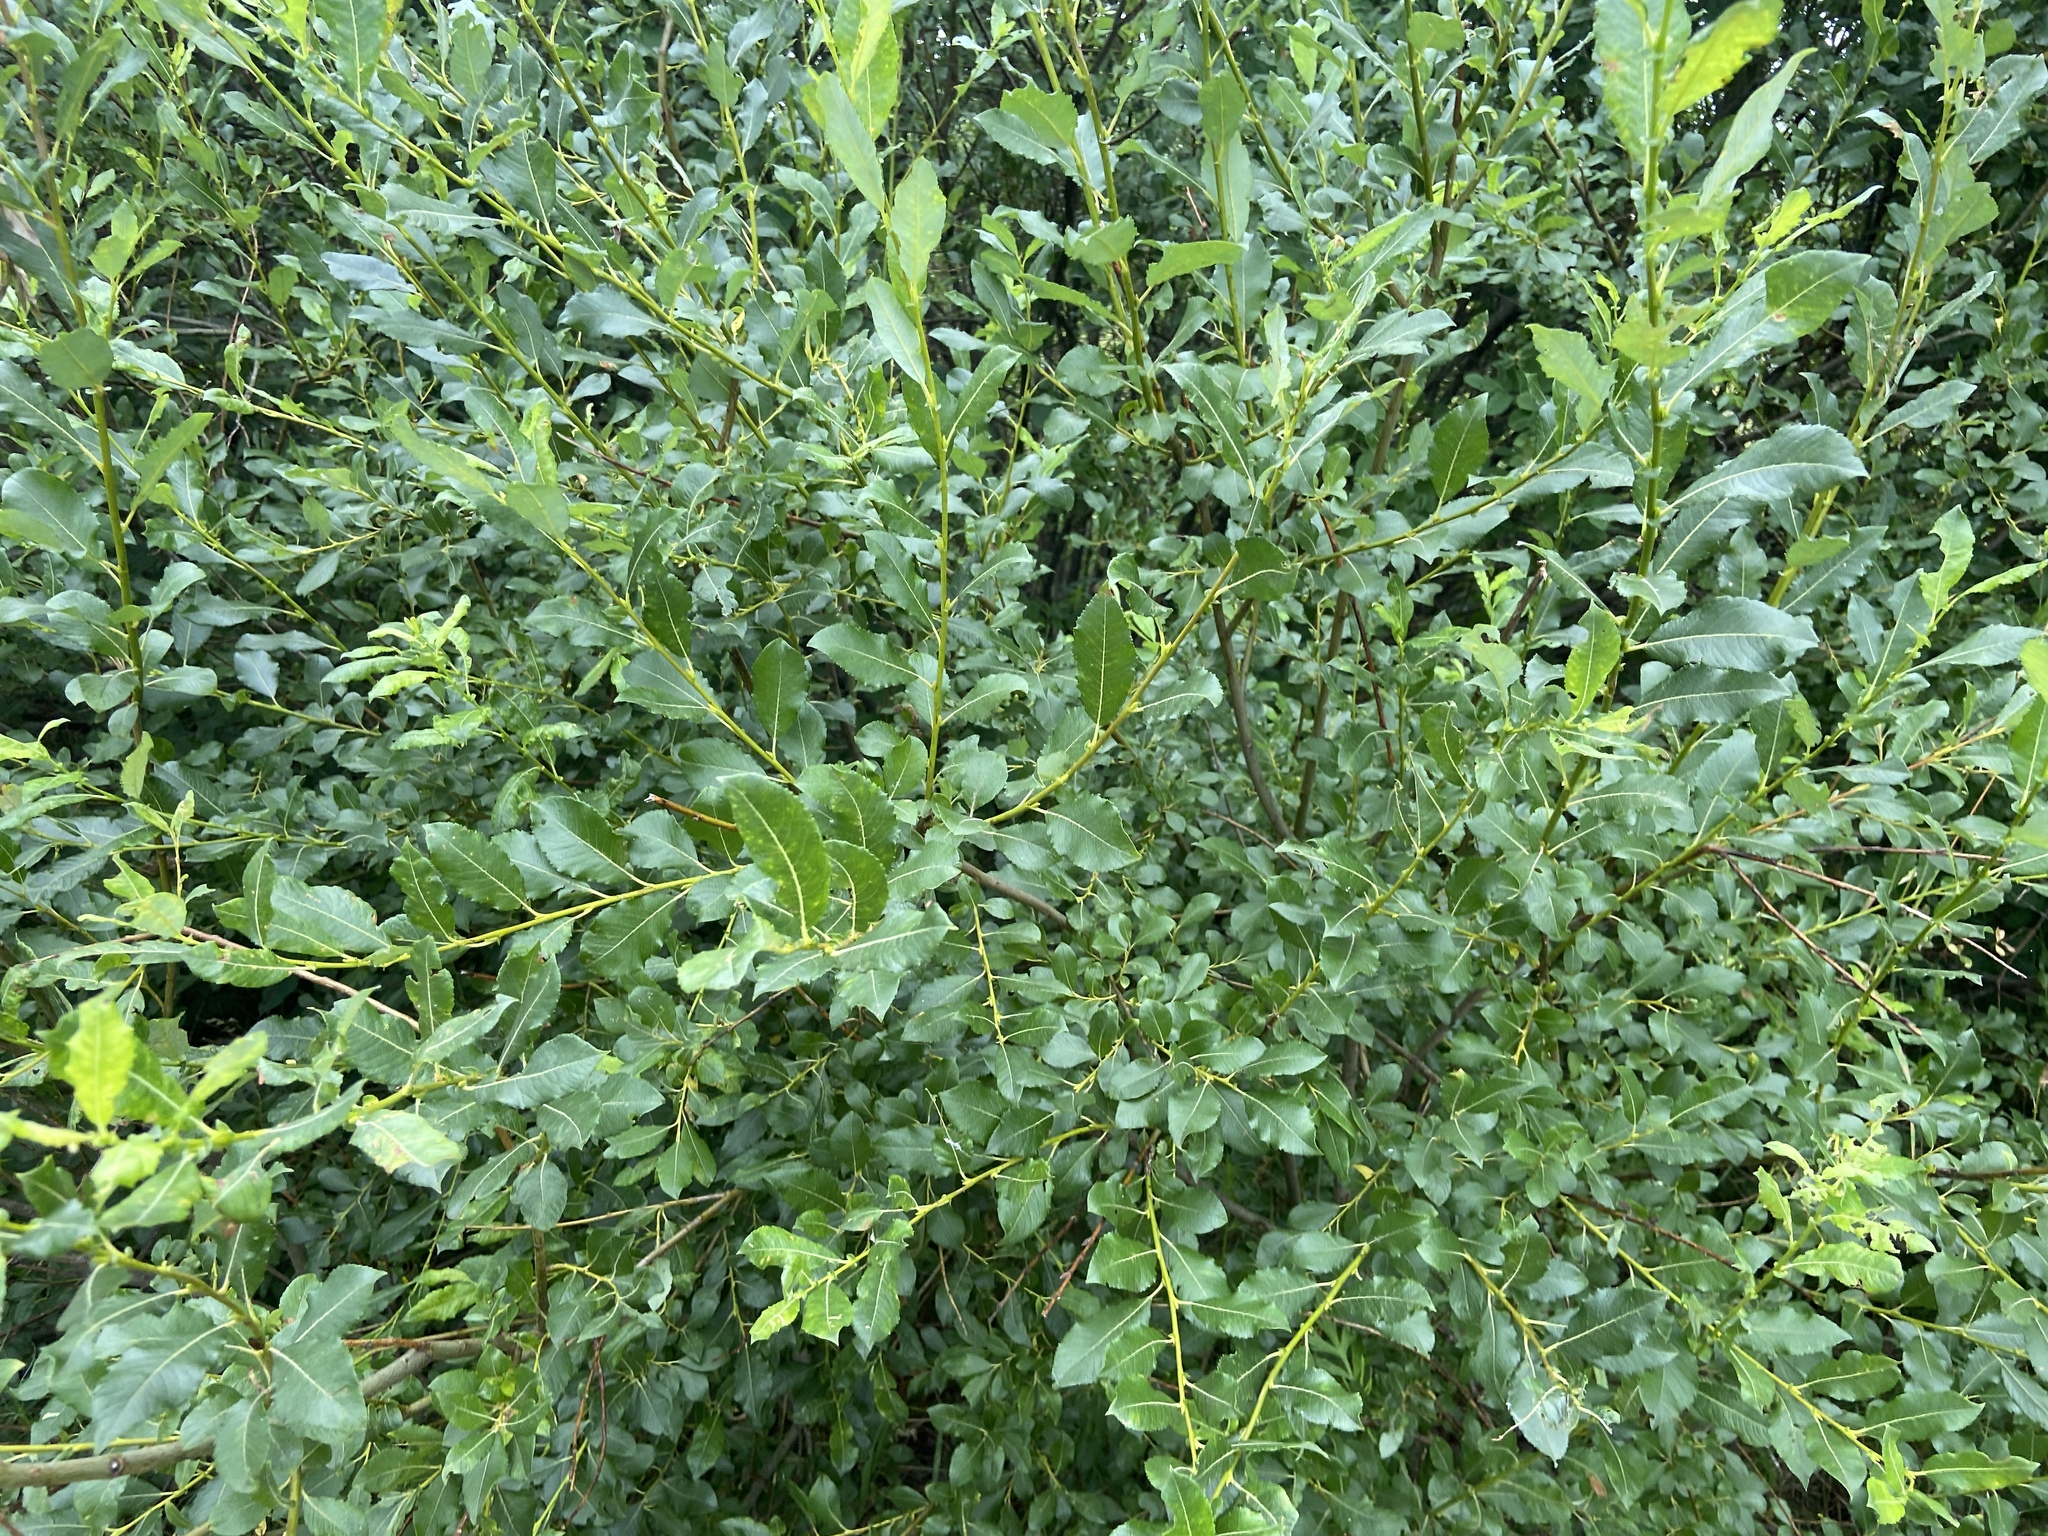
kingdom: Plantae
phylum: Tracheophyta
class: Magnoliopsida
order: Malpighiales
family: Salicaceae
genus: Salix
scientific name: Salix myrsinifolia
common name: Dark-leaved willow
